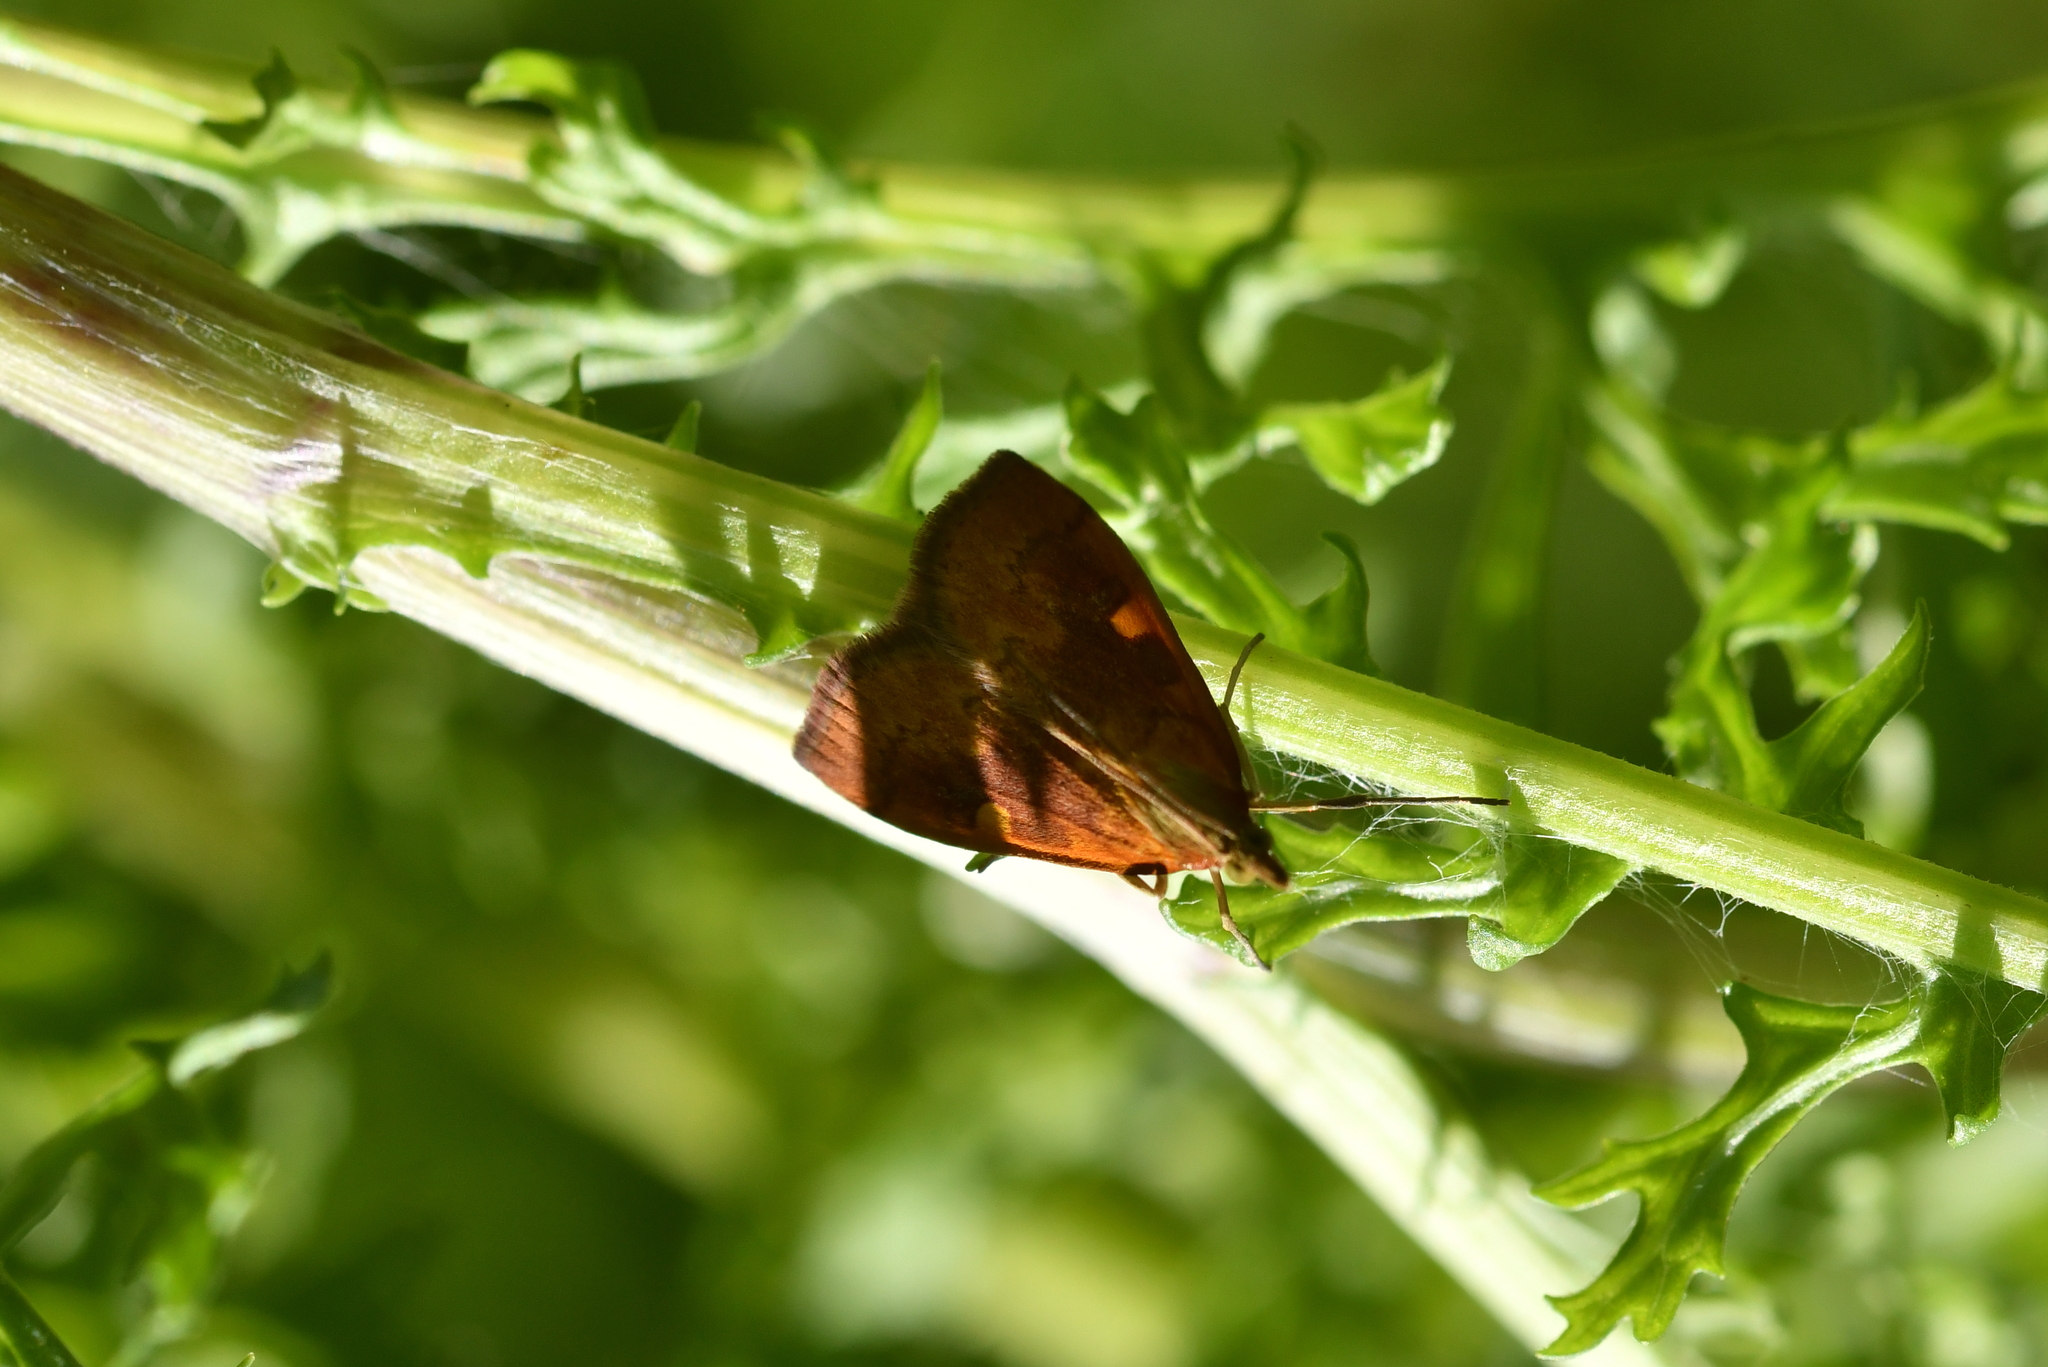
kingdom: Animalia
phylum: Arthropoda
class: Insecta
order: Lepidoptera
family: Crambidae
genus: Udea
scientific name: Udea Mnesictena flavidalis
